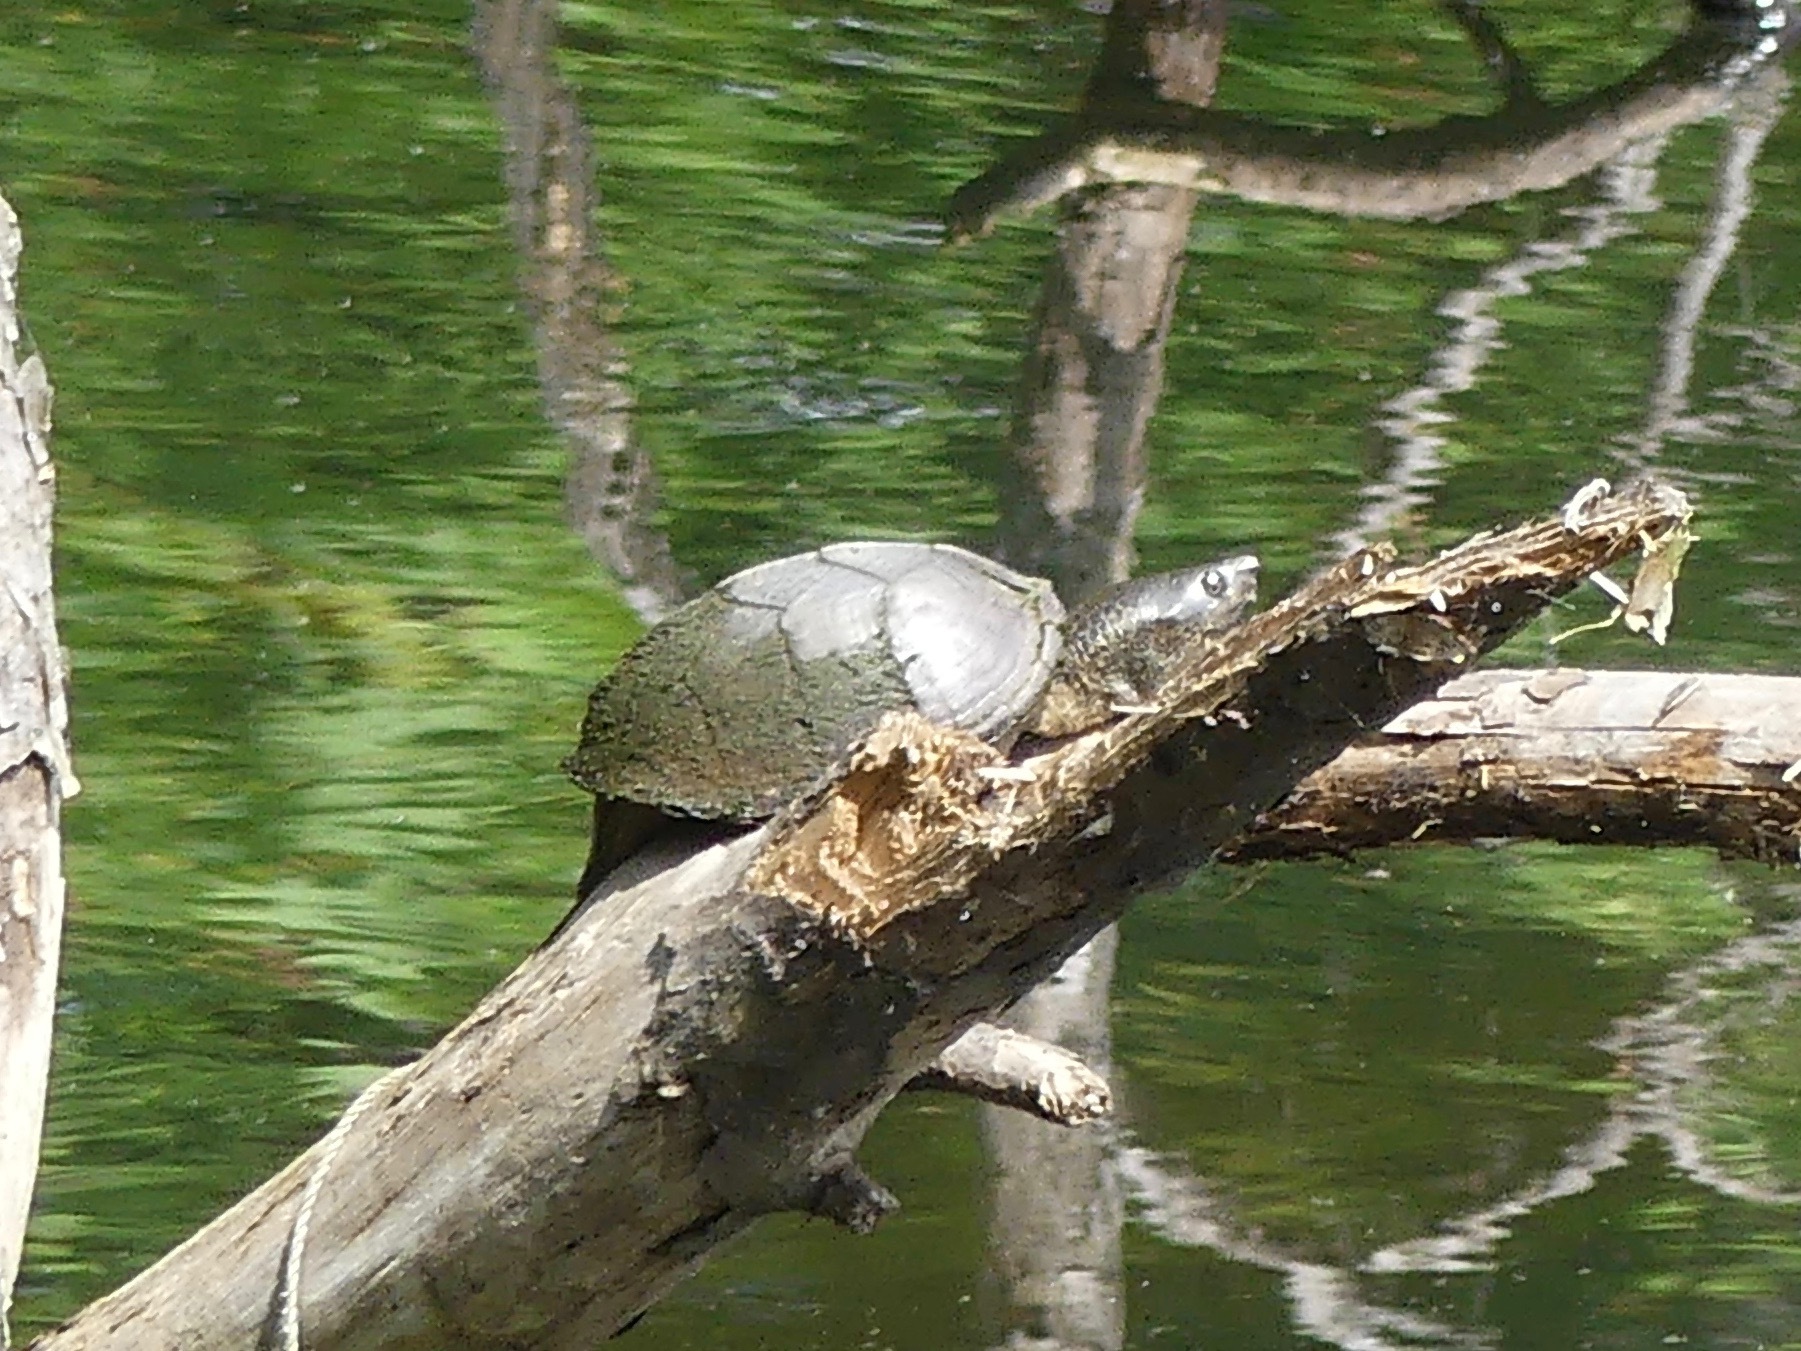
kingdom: Animalia
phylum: Chordata
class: Testudines
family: Kinosternidae
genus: Sternotherus
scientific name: Sternotherus carinatus
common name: Razor-backed musk turtle
